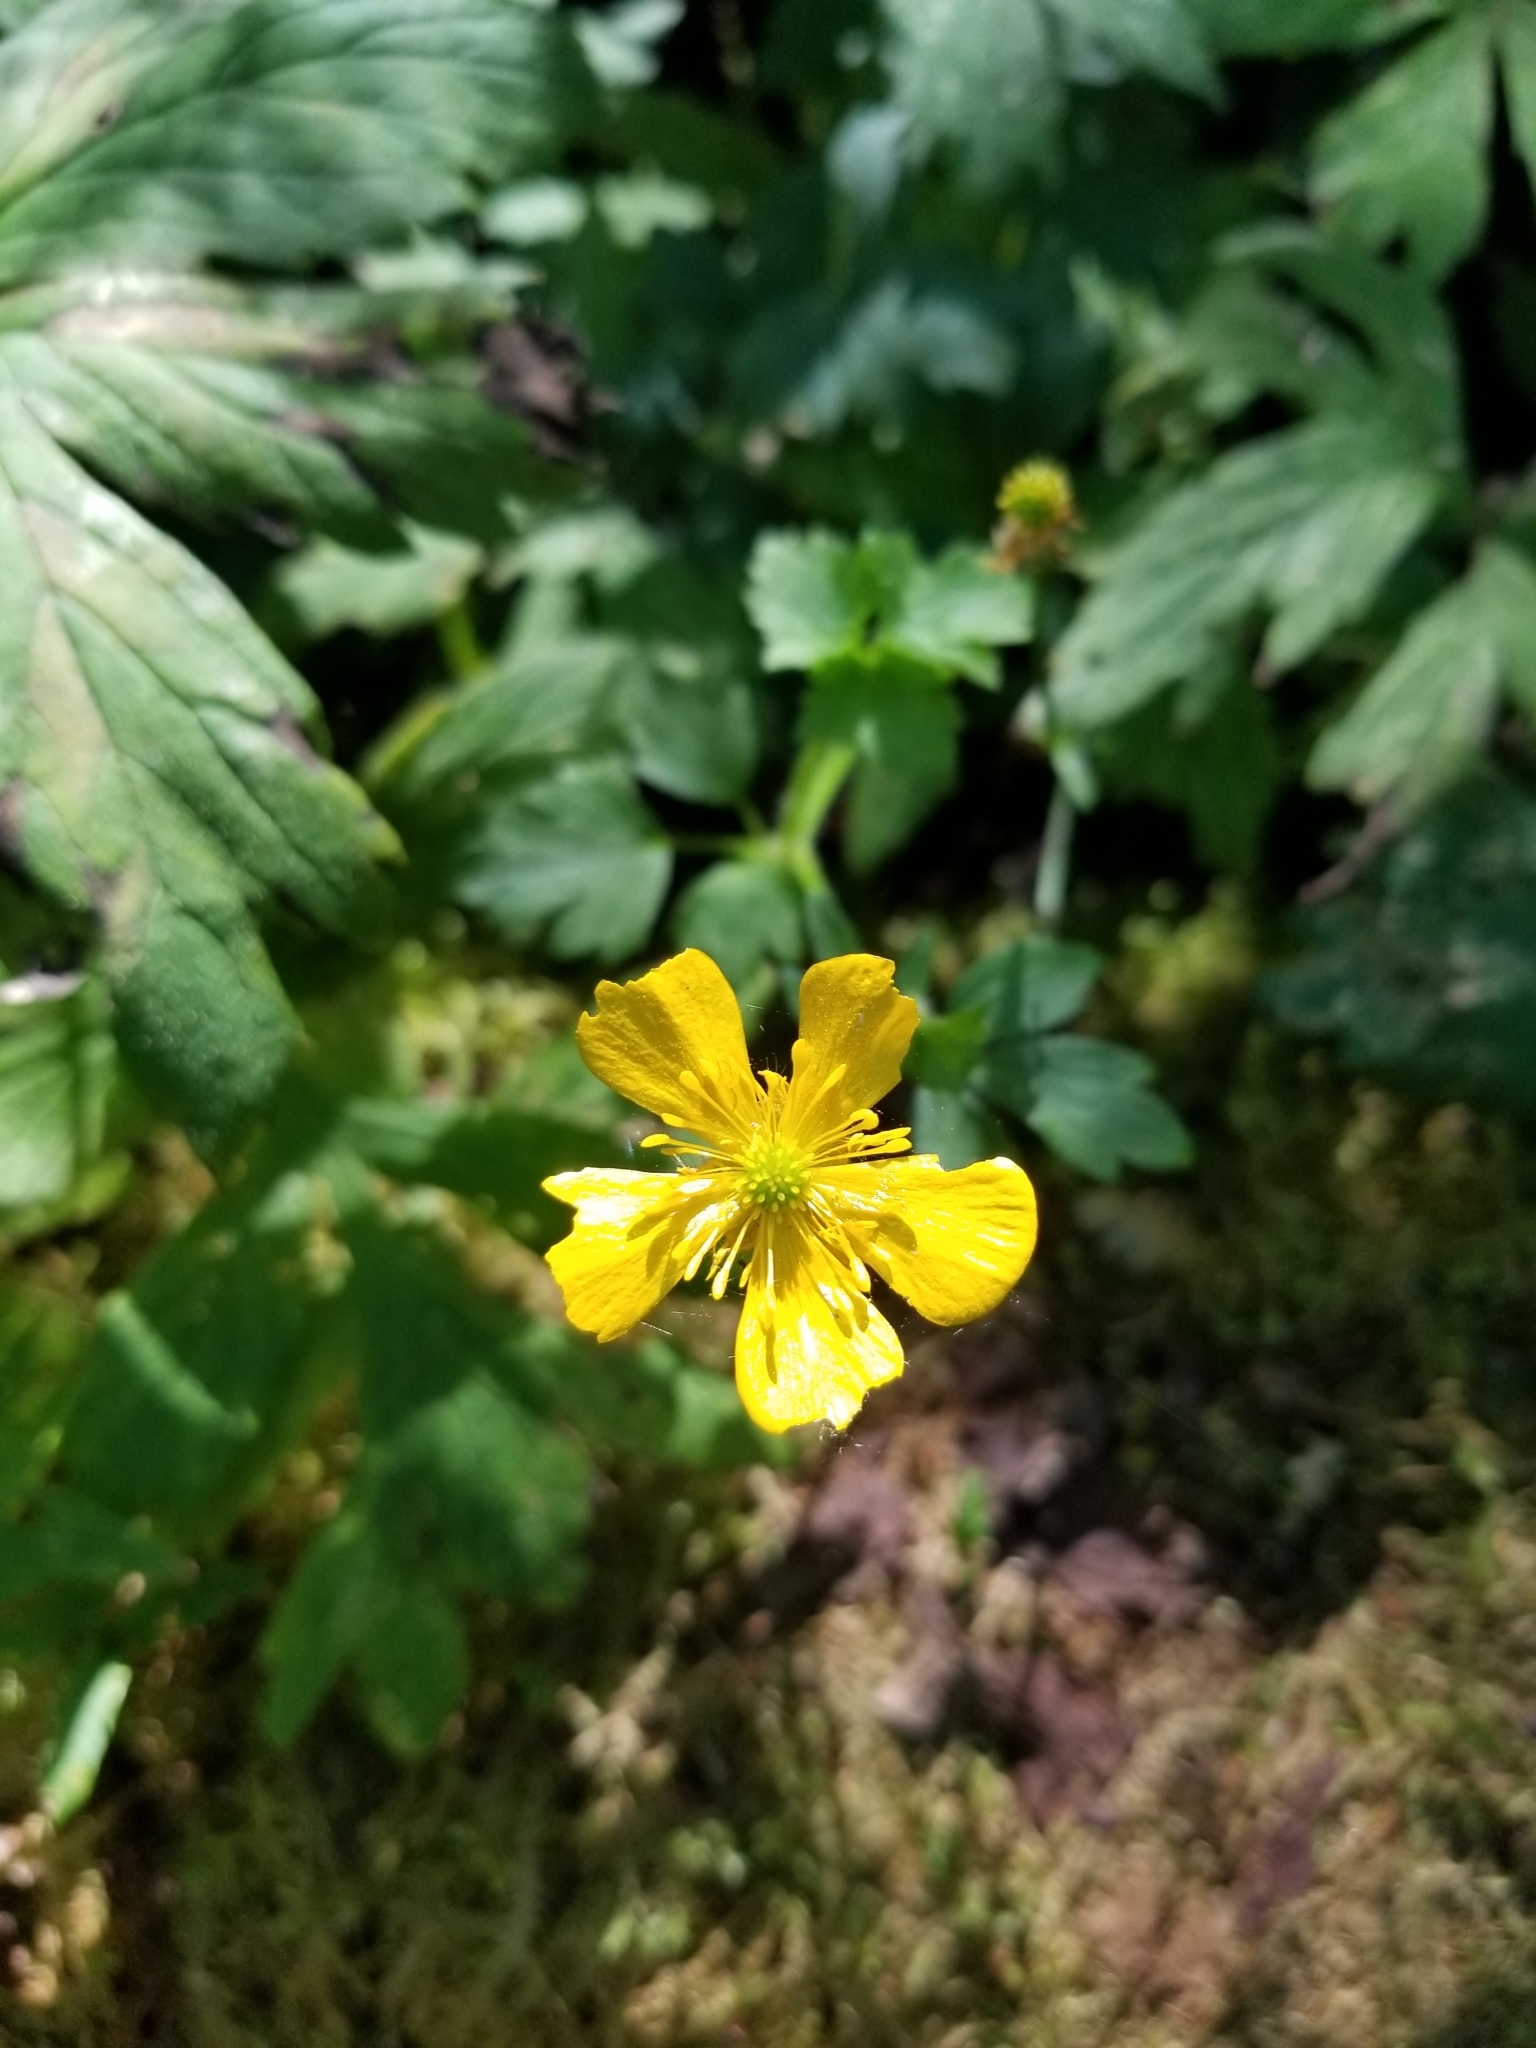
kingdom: Plantae
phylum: Tracheophyta
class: Magnoliopsida
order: Ranunculales
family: Ranunculaceae
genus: Ranunculus
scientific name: Ranunculus repens
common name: Creeping buttercup
